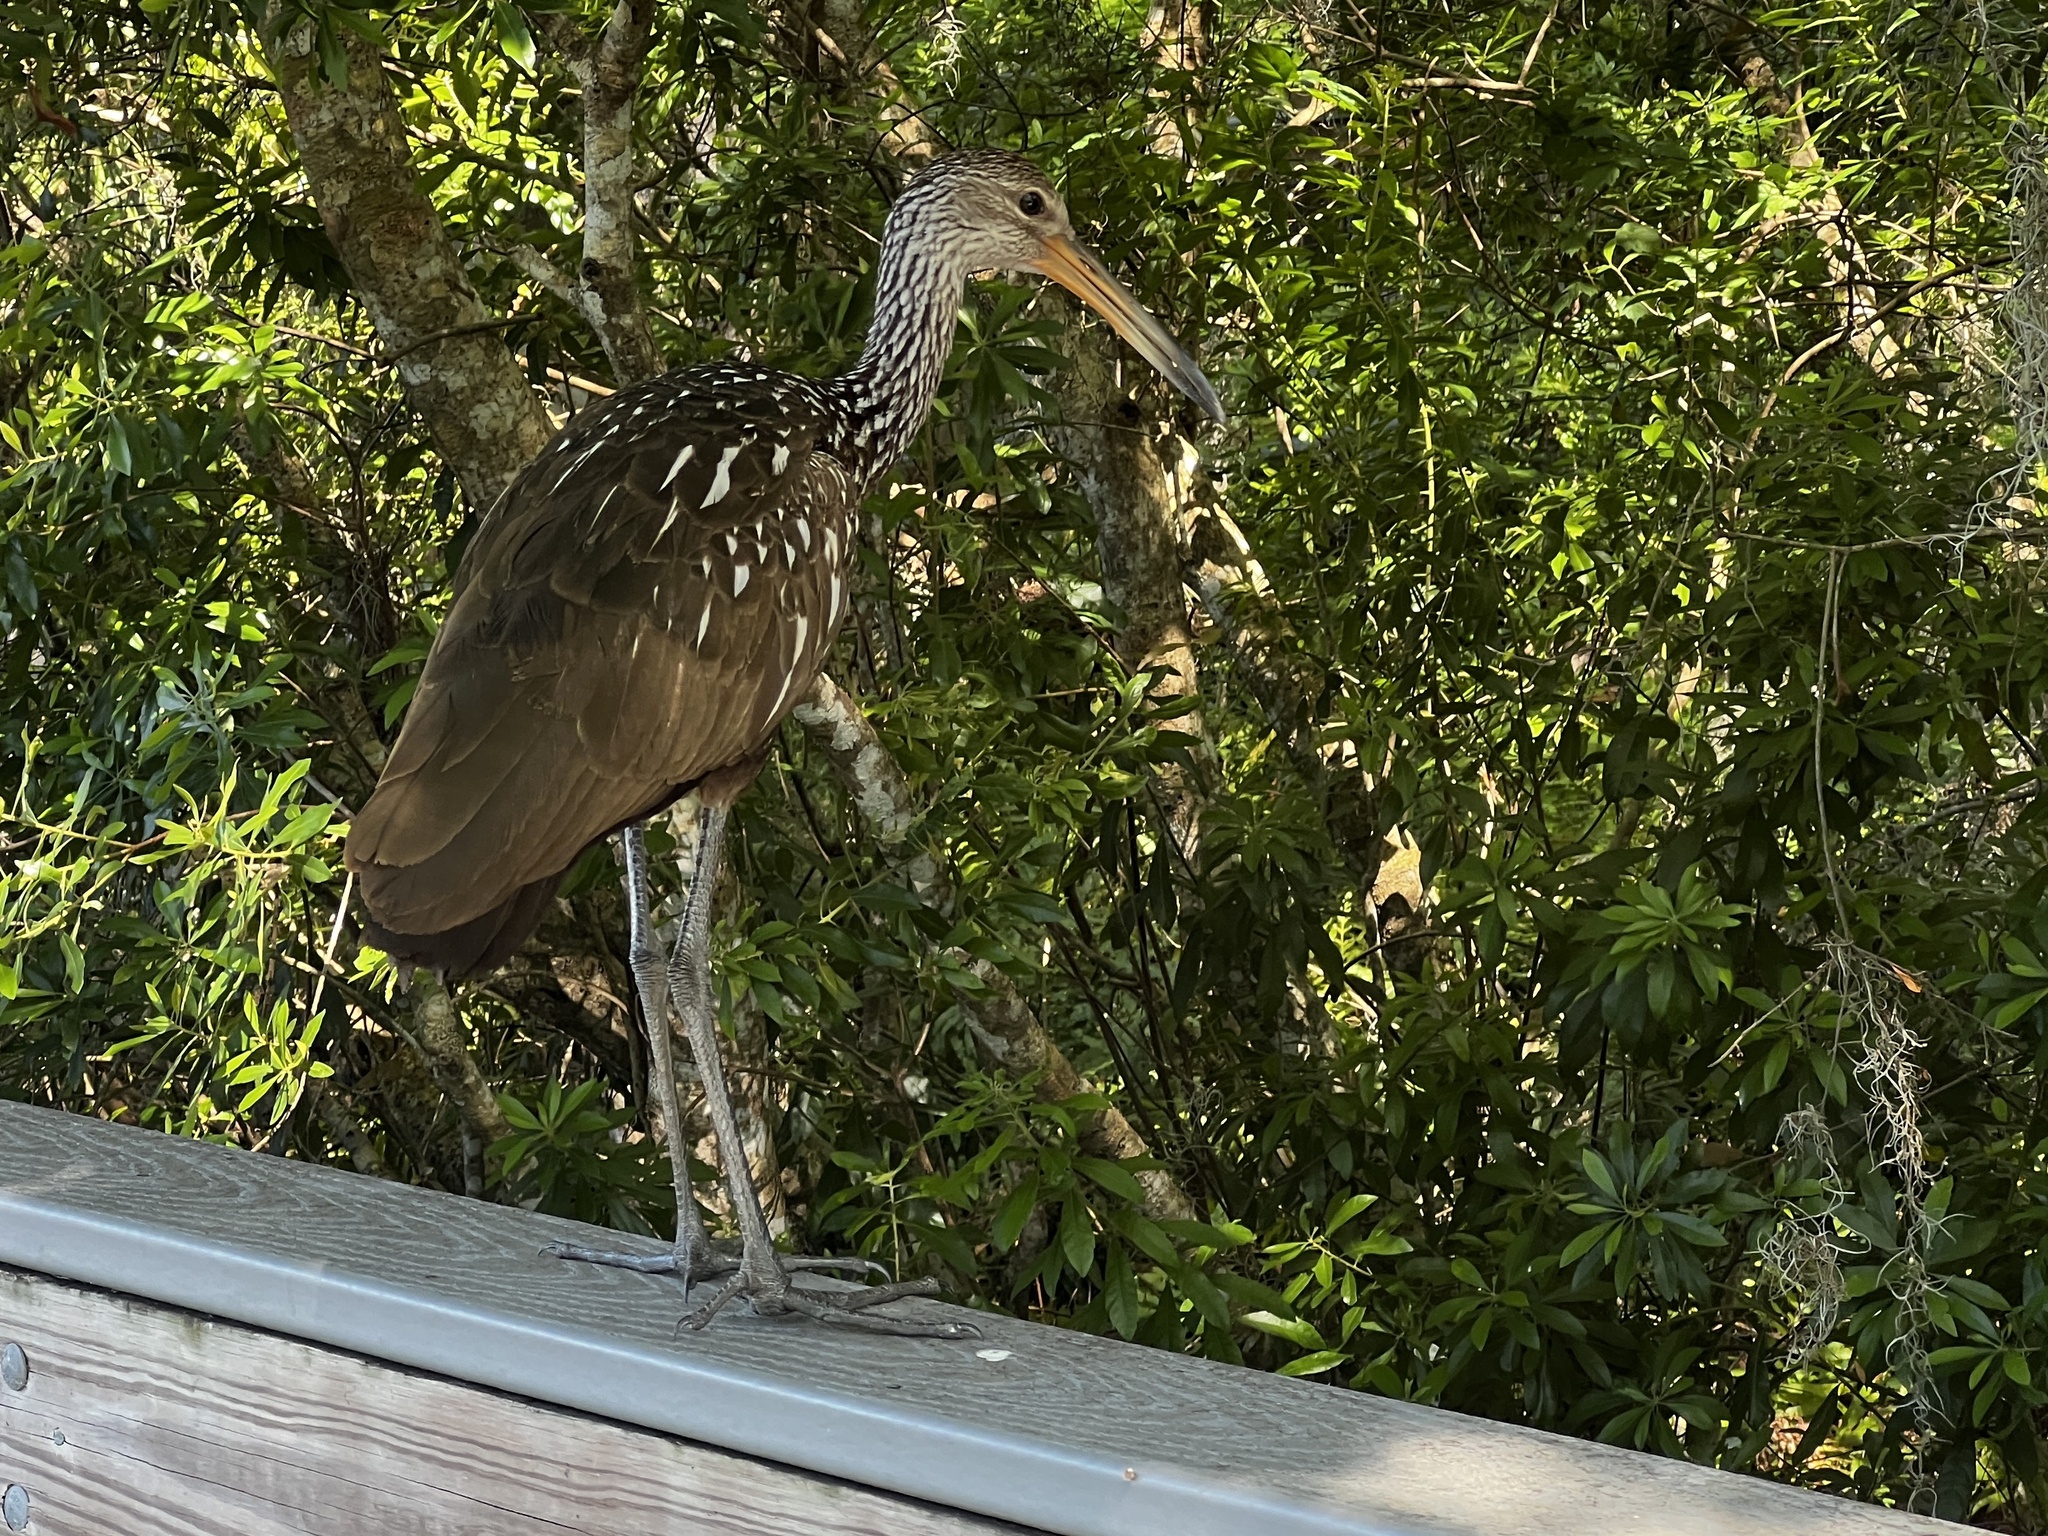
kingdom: Animalia
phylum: Chordata
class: Aves
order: Gruiformes
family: Aramidae
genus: Aramus
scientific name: Aramus guarauna
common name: Limpkin
